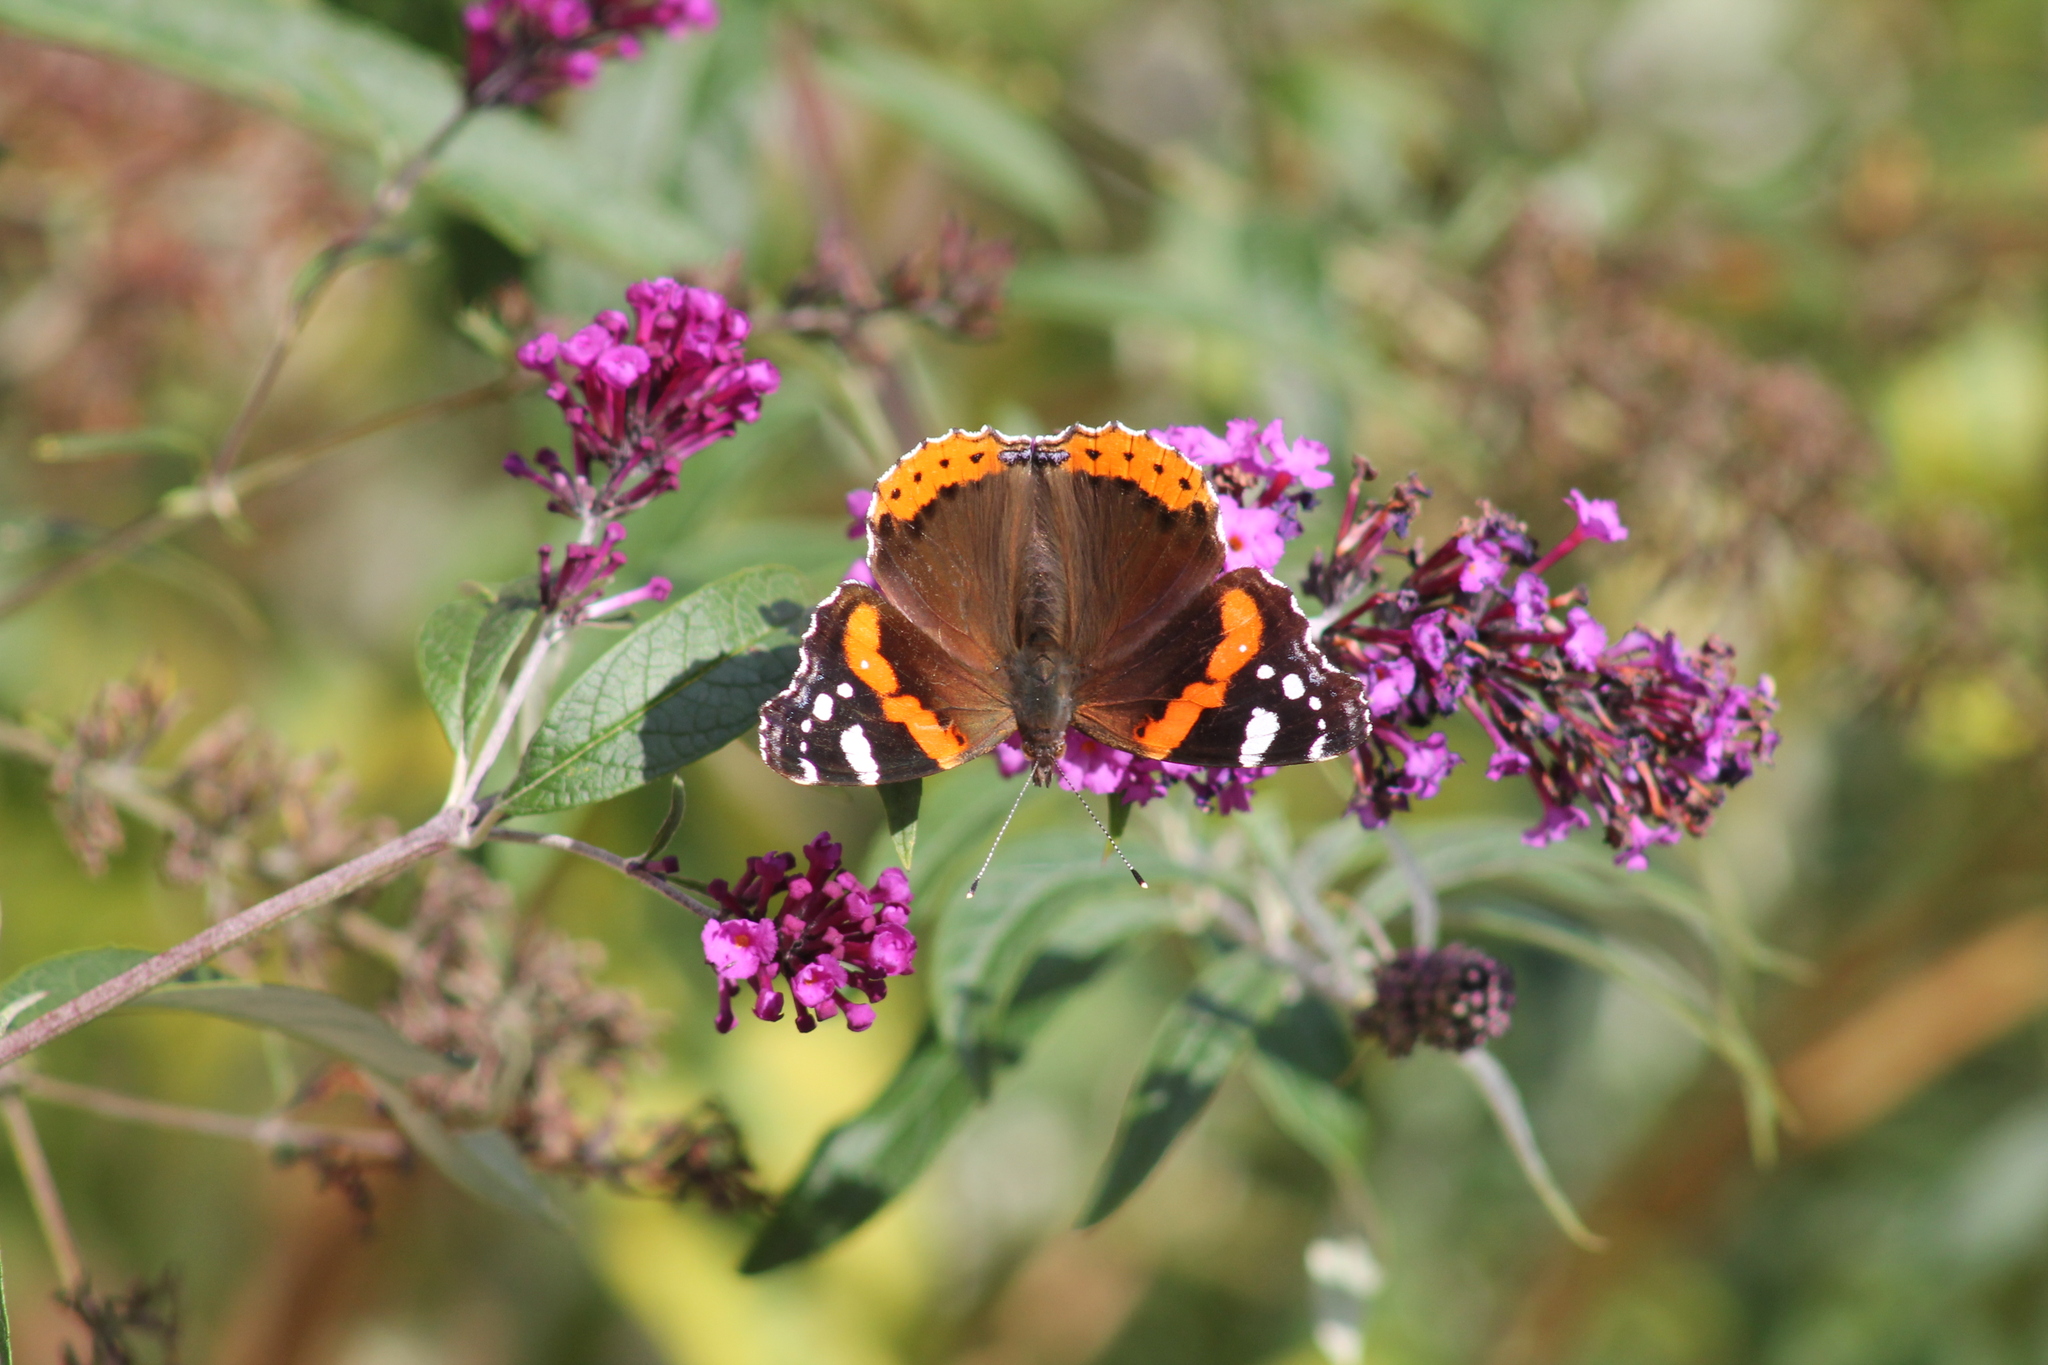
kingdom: Animalia
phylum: Arthropoda
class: Insecta
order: Lepidoptera
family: Nymphalidae
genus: Vanessa
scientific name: Vanessa atalanta
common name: Red admiral
